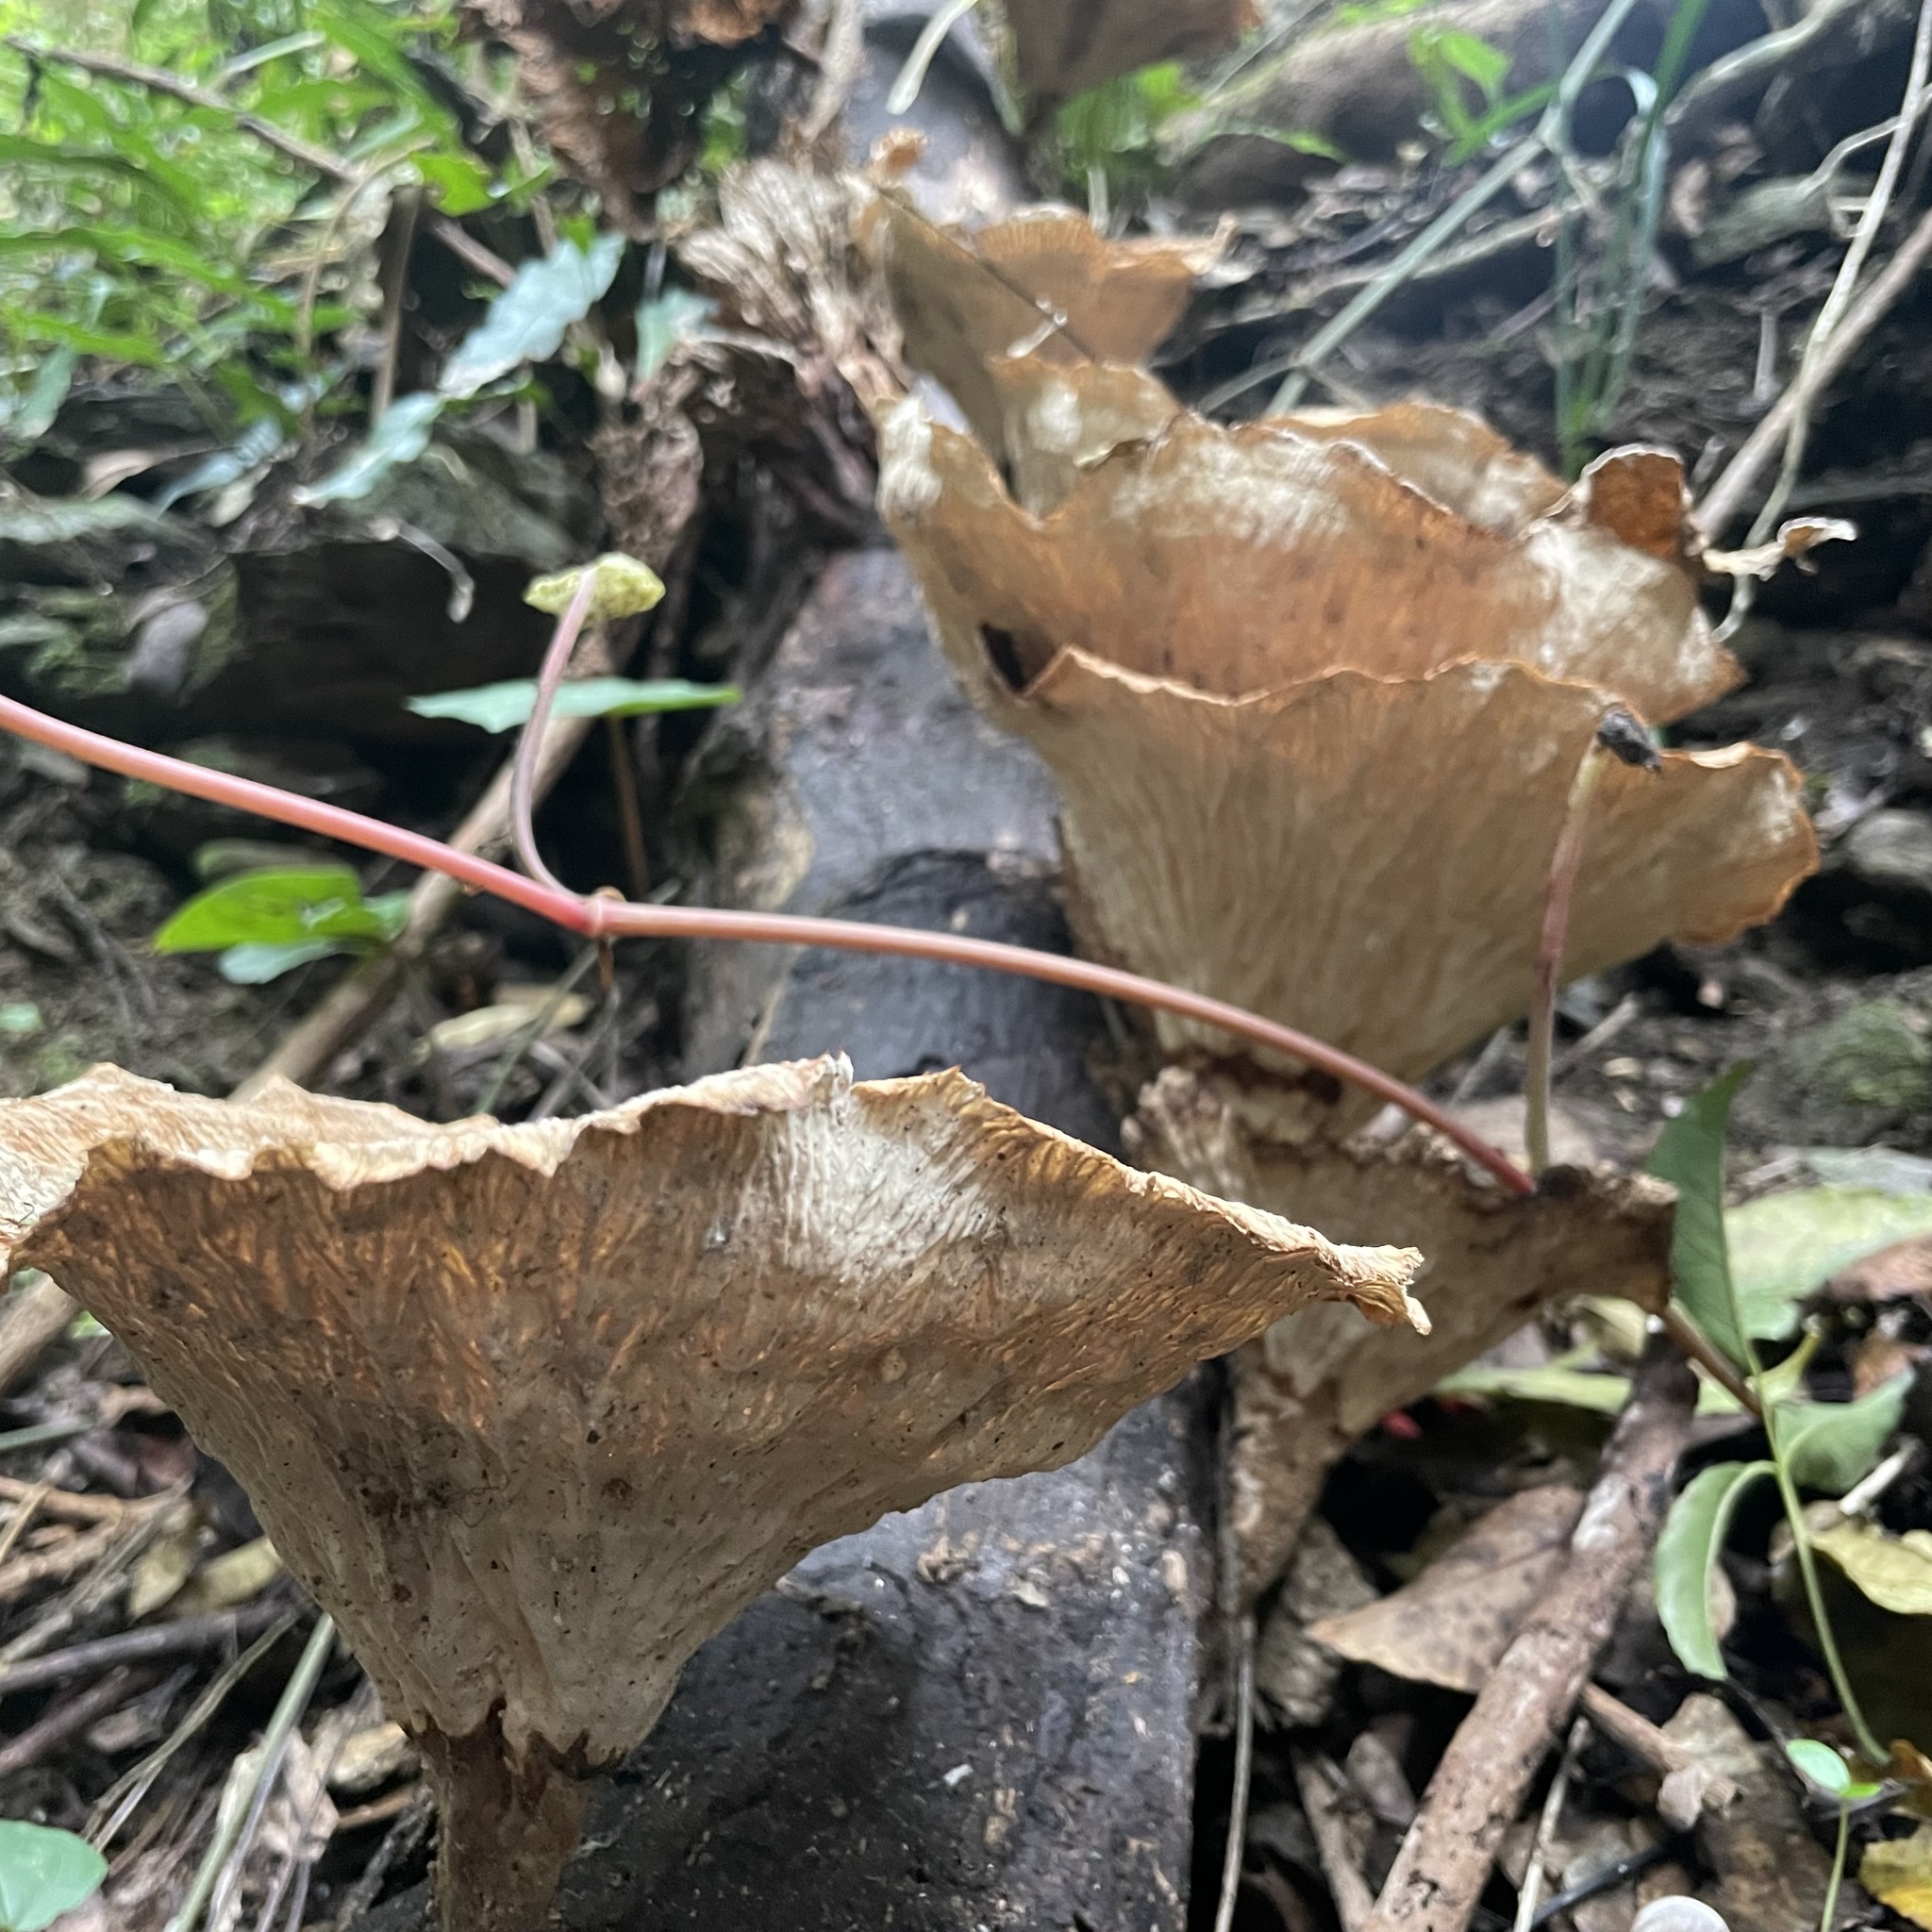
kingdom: Fungi
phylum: Basidiomycota
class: Agaricomycetes
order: Polyporales
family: Panaceae
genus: Cymatoderma
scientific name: Cymatoderma elegans
